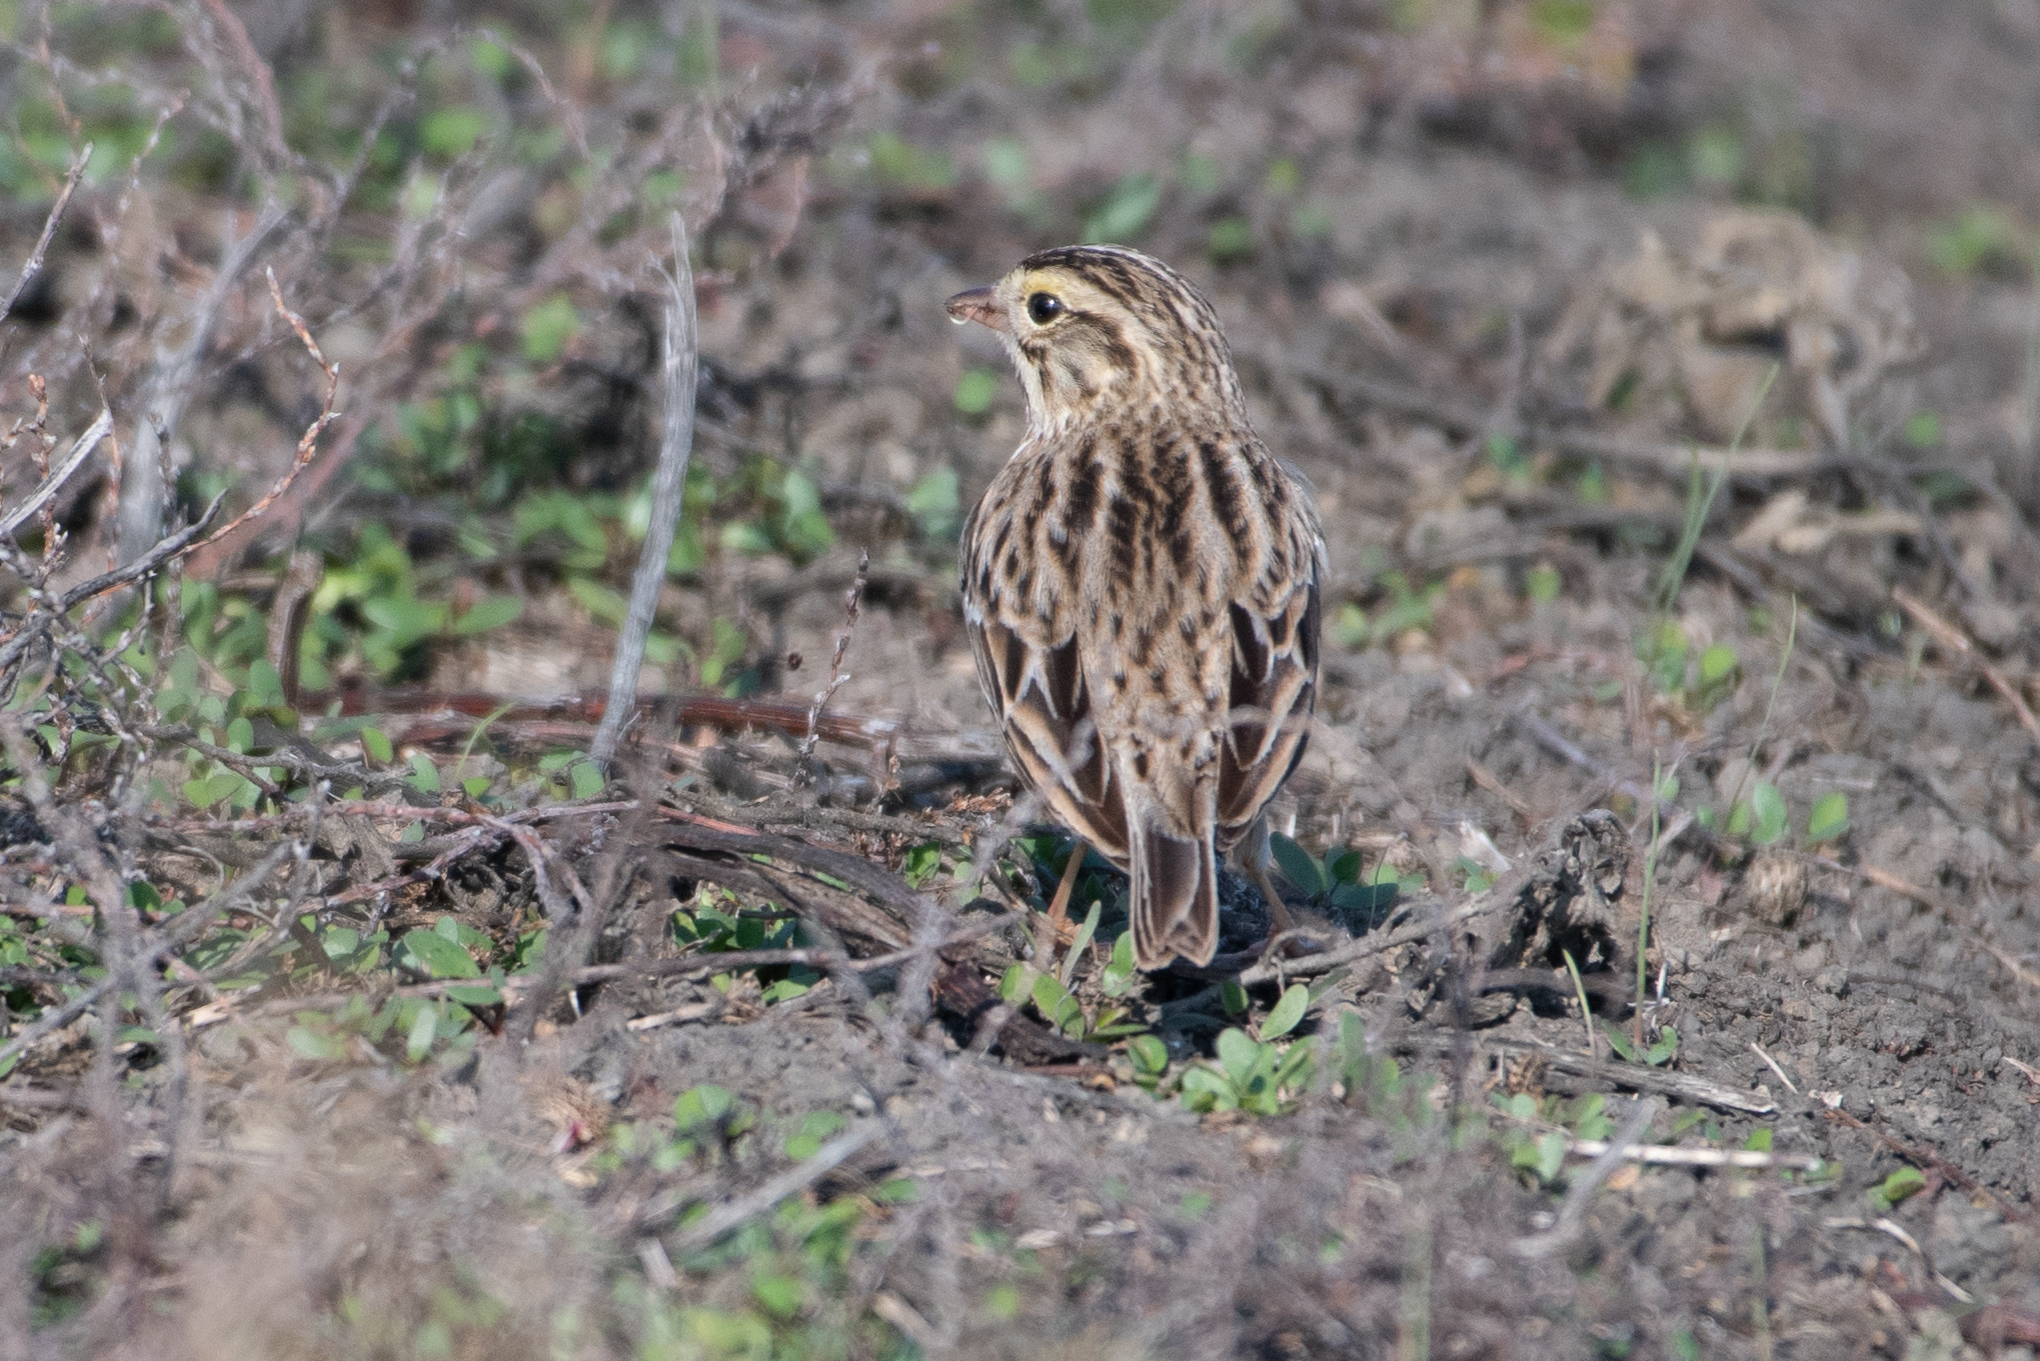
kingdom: Animalia
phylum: Chordata
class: Aves
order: Passeriformes
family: Passerellidae
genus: Passerculus
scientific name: Passerculus sandwichensis
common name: Savannah sparrow
